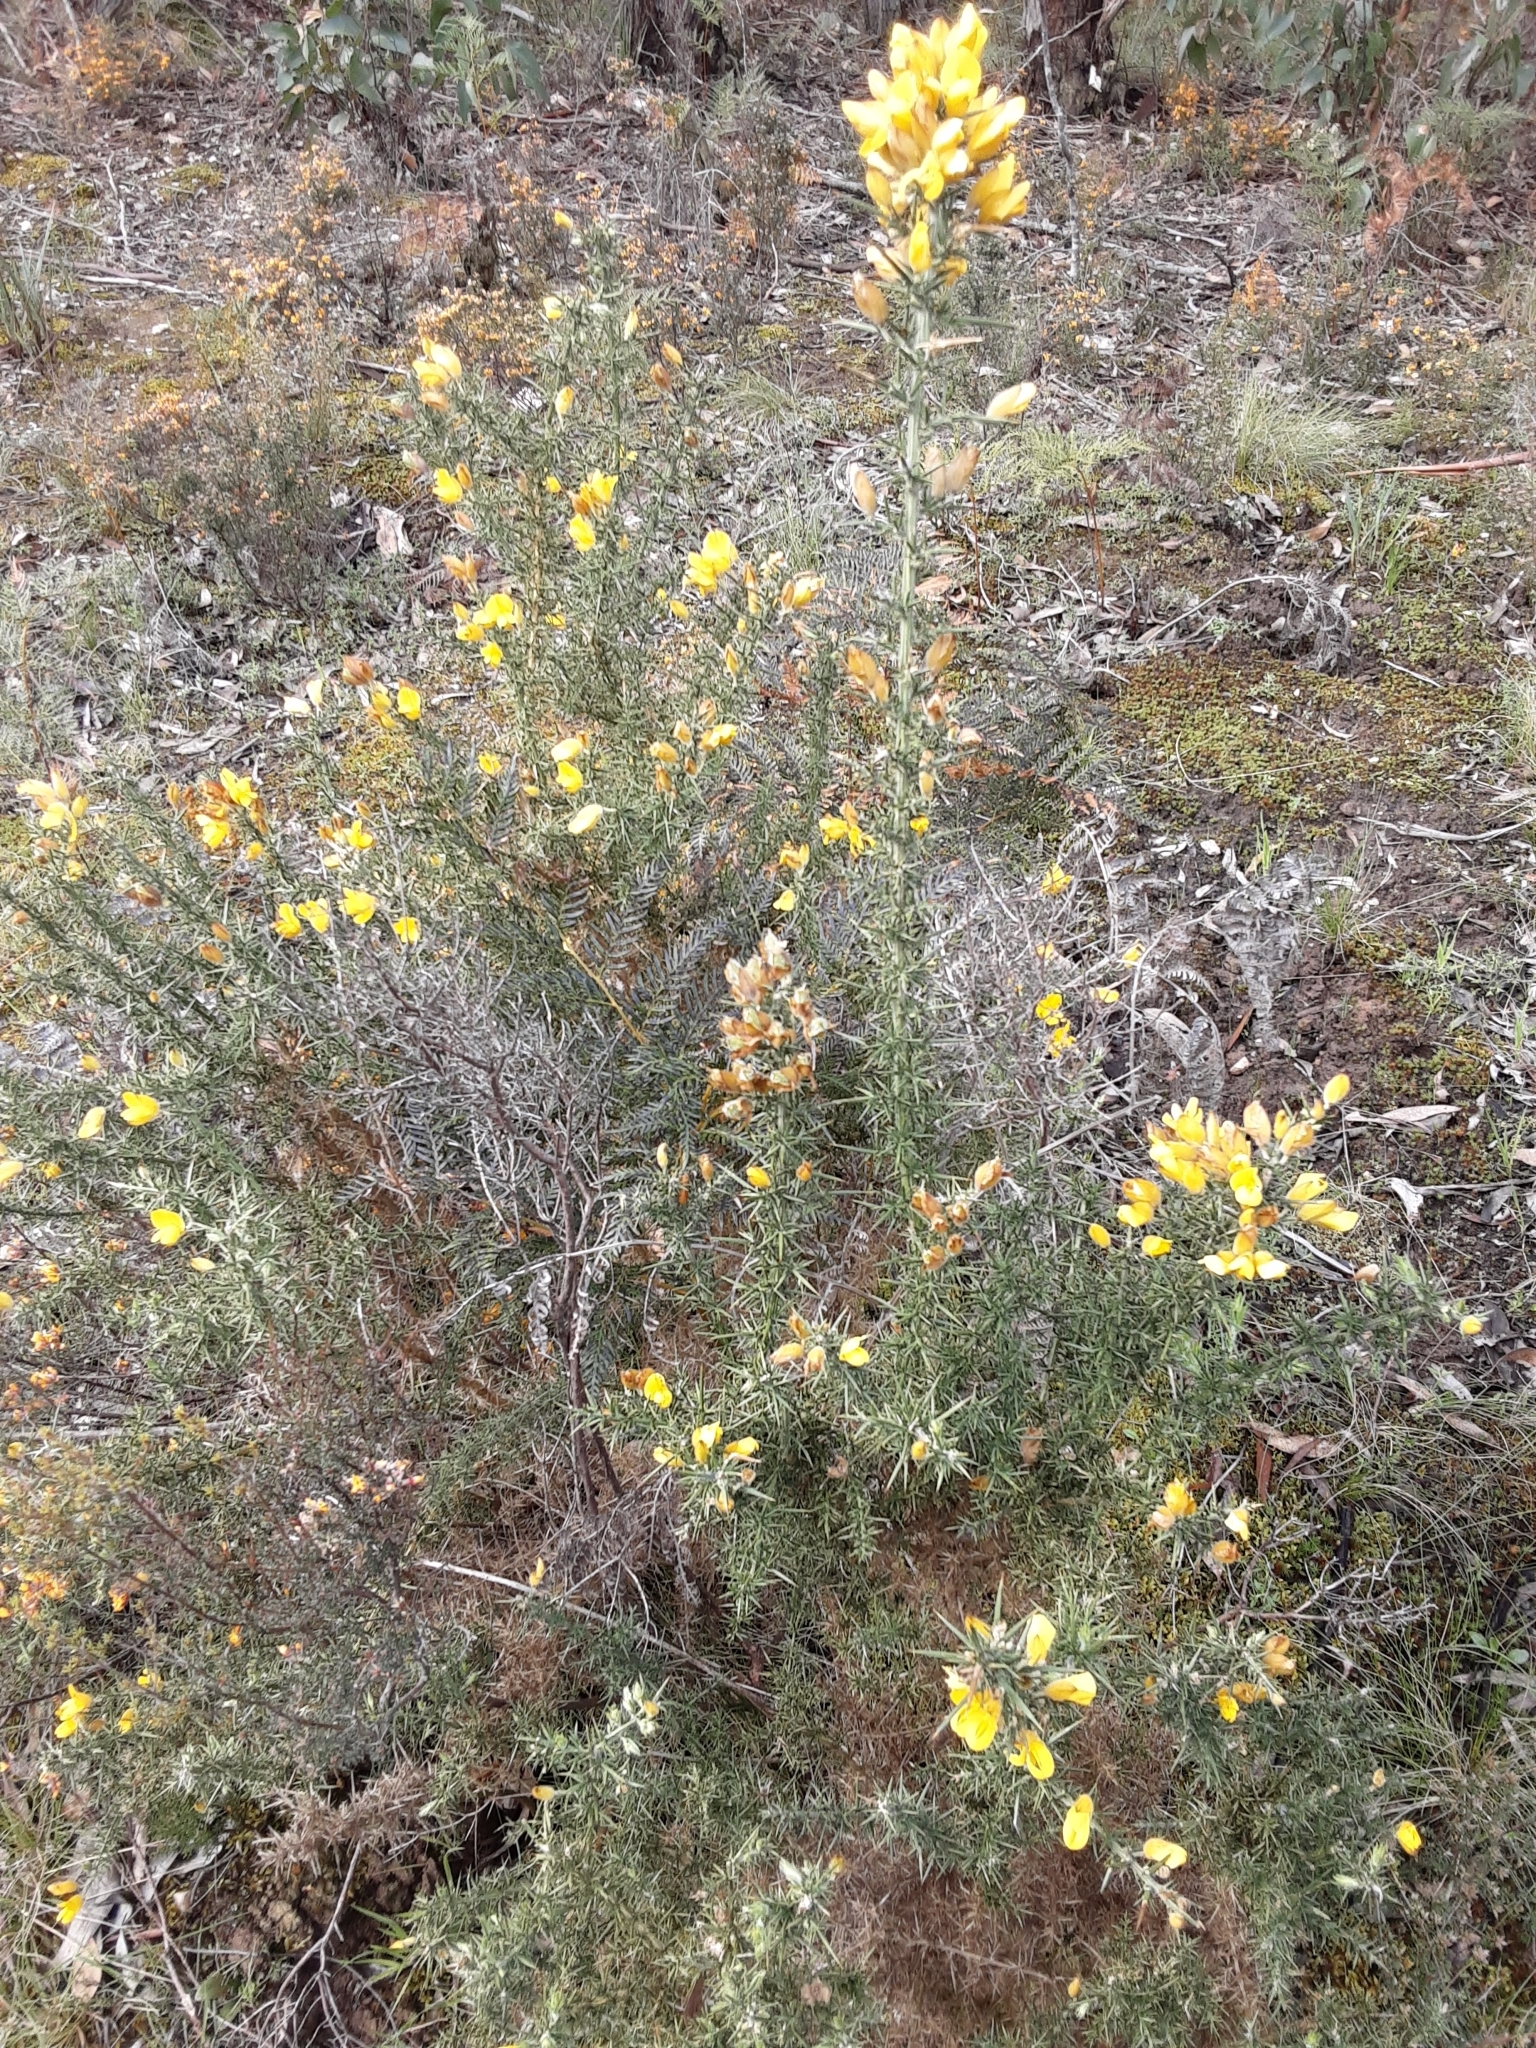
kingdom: Plantae
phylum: Tracheophyta
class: Magnoliopsida
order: Fabales
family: Fabaceae
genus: Ulex
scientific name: Ulex europaeus
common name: Common gorse
